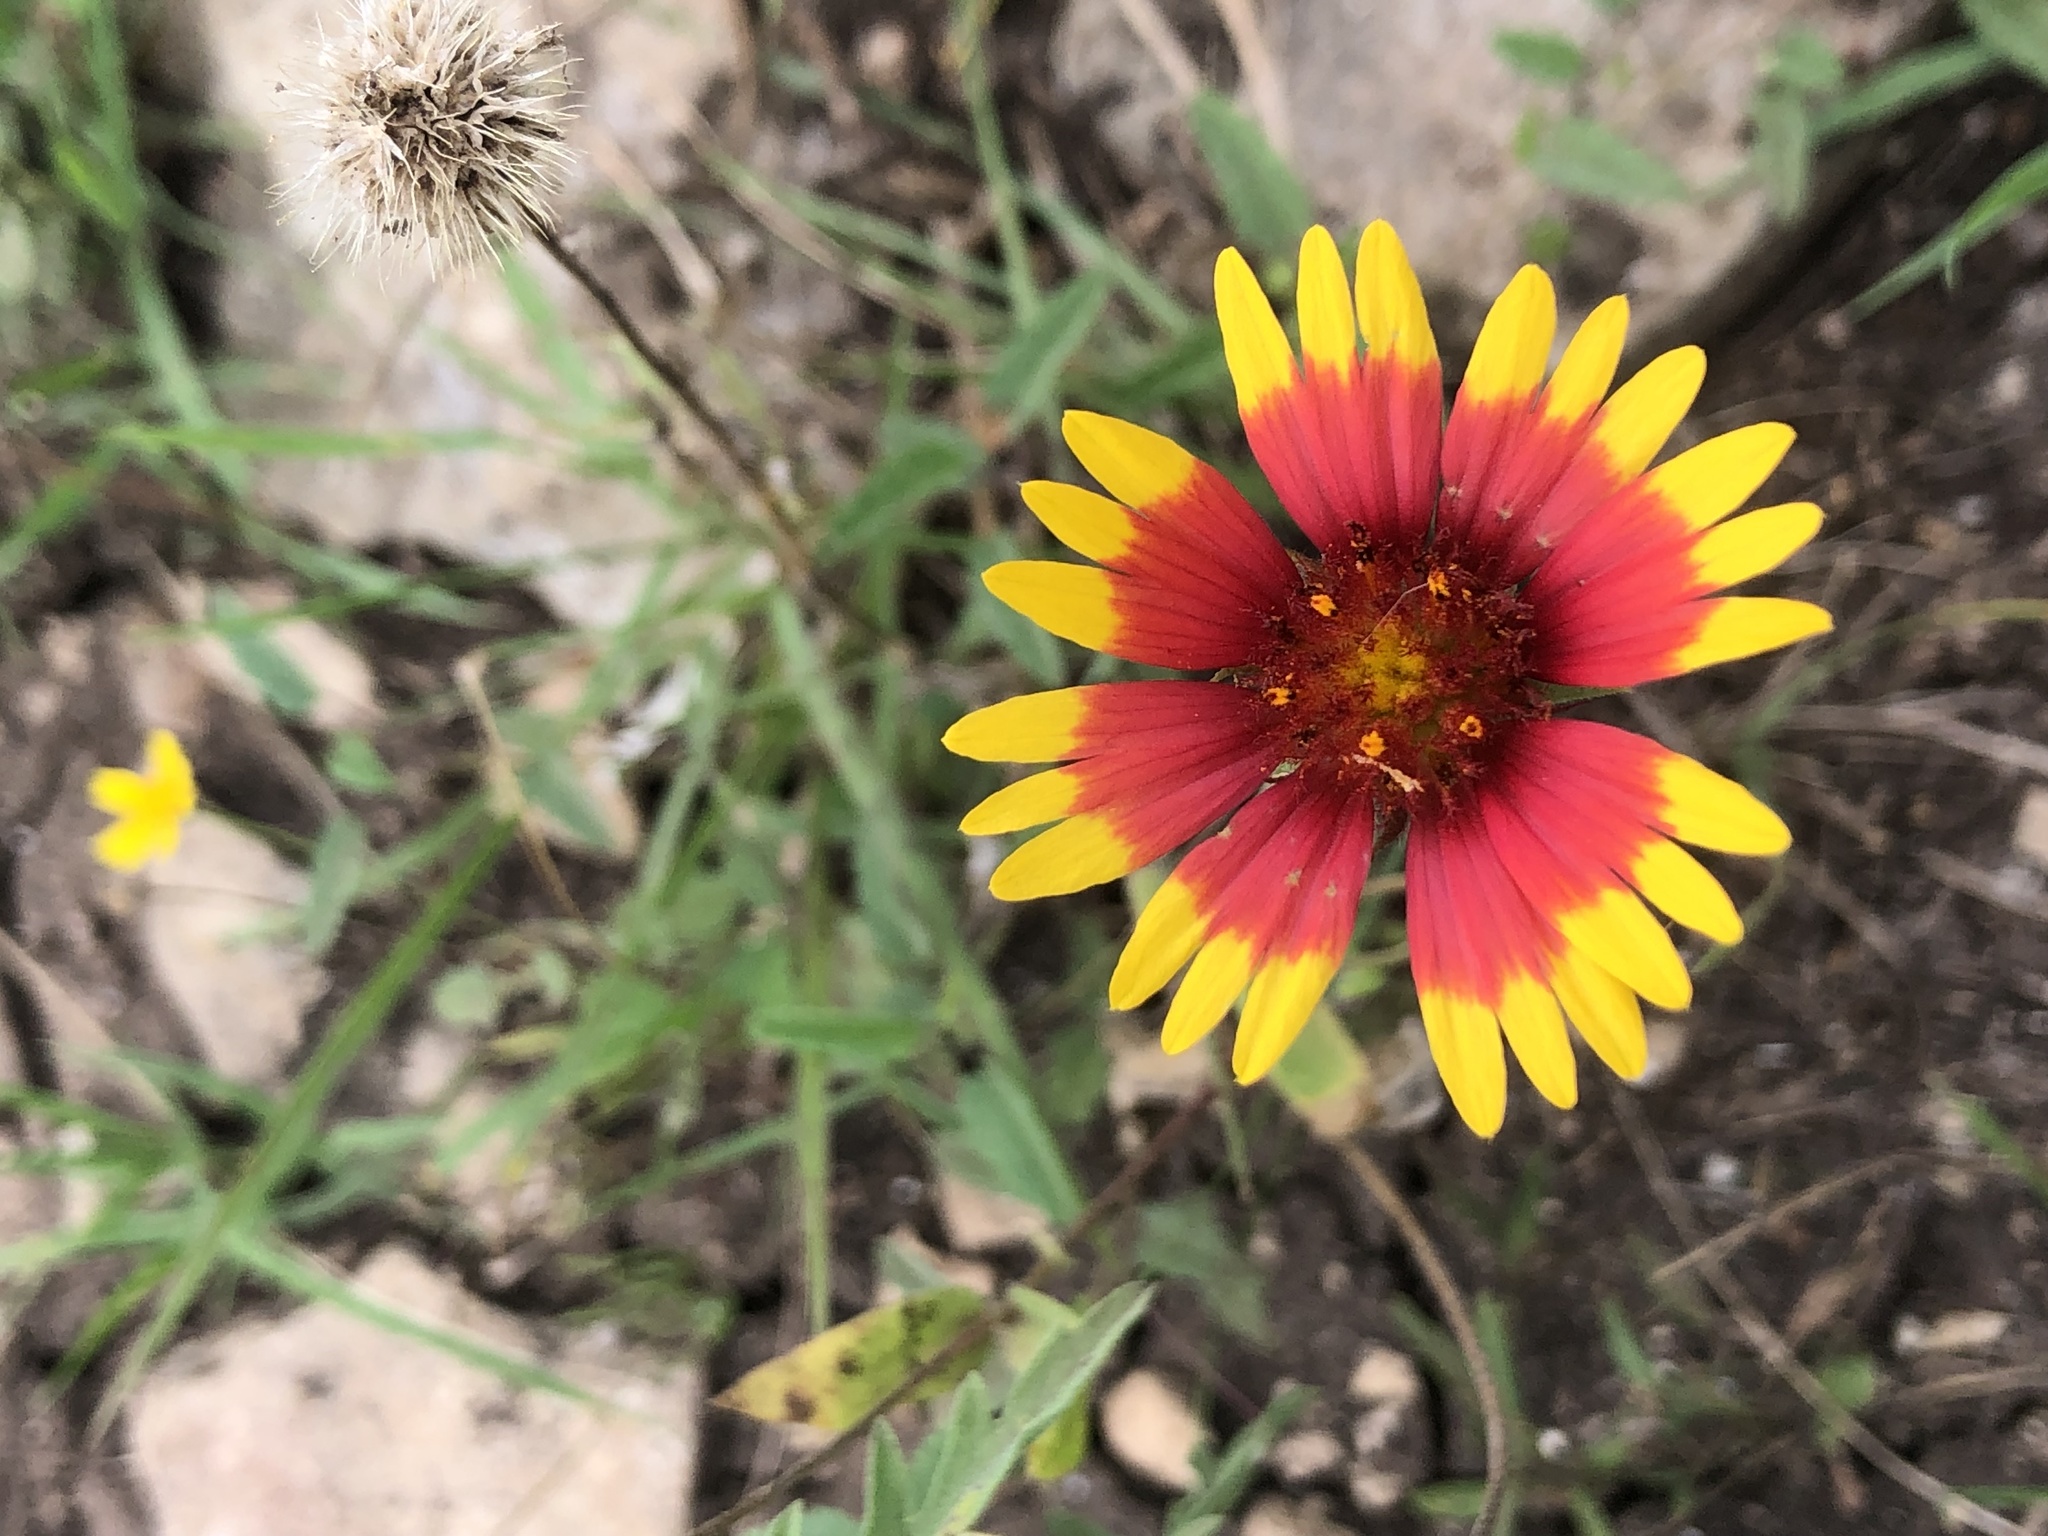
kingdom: Plantae
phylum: Tracheophyta
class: Magnoliopsida
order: Asterales
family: Asteraceae
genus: Gaillardia
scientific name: Gaillardia pulchella
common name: Firewheel
